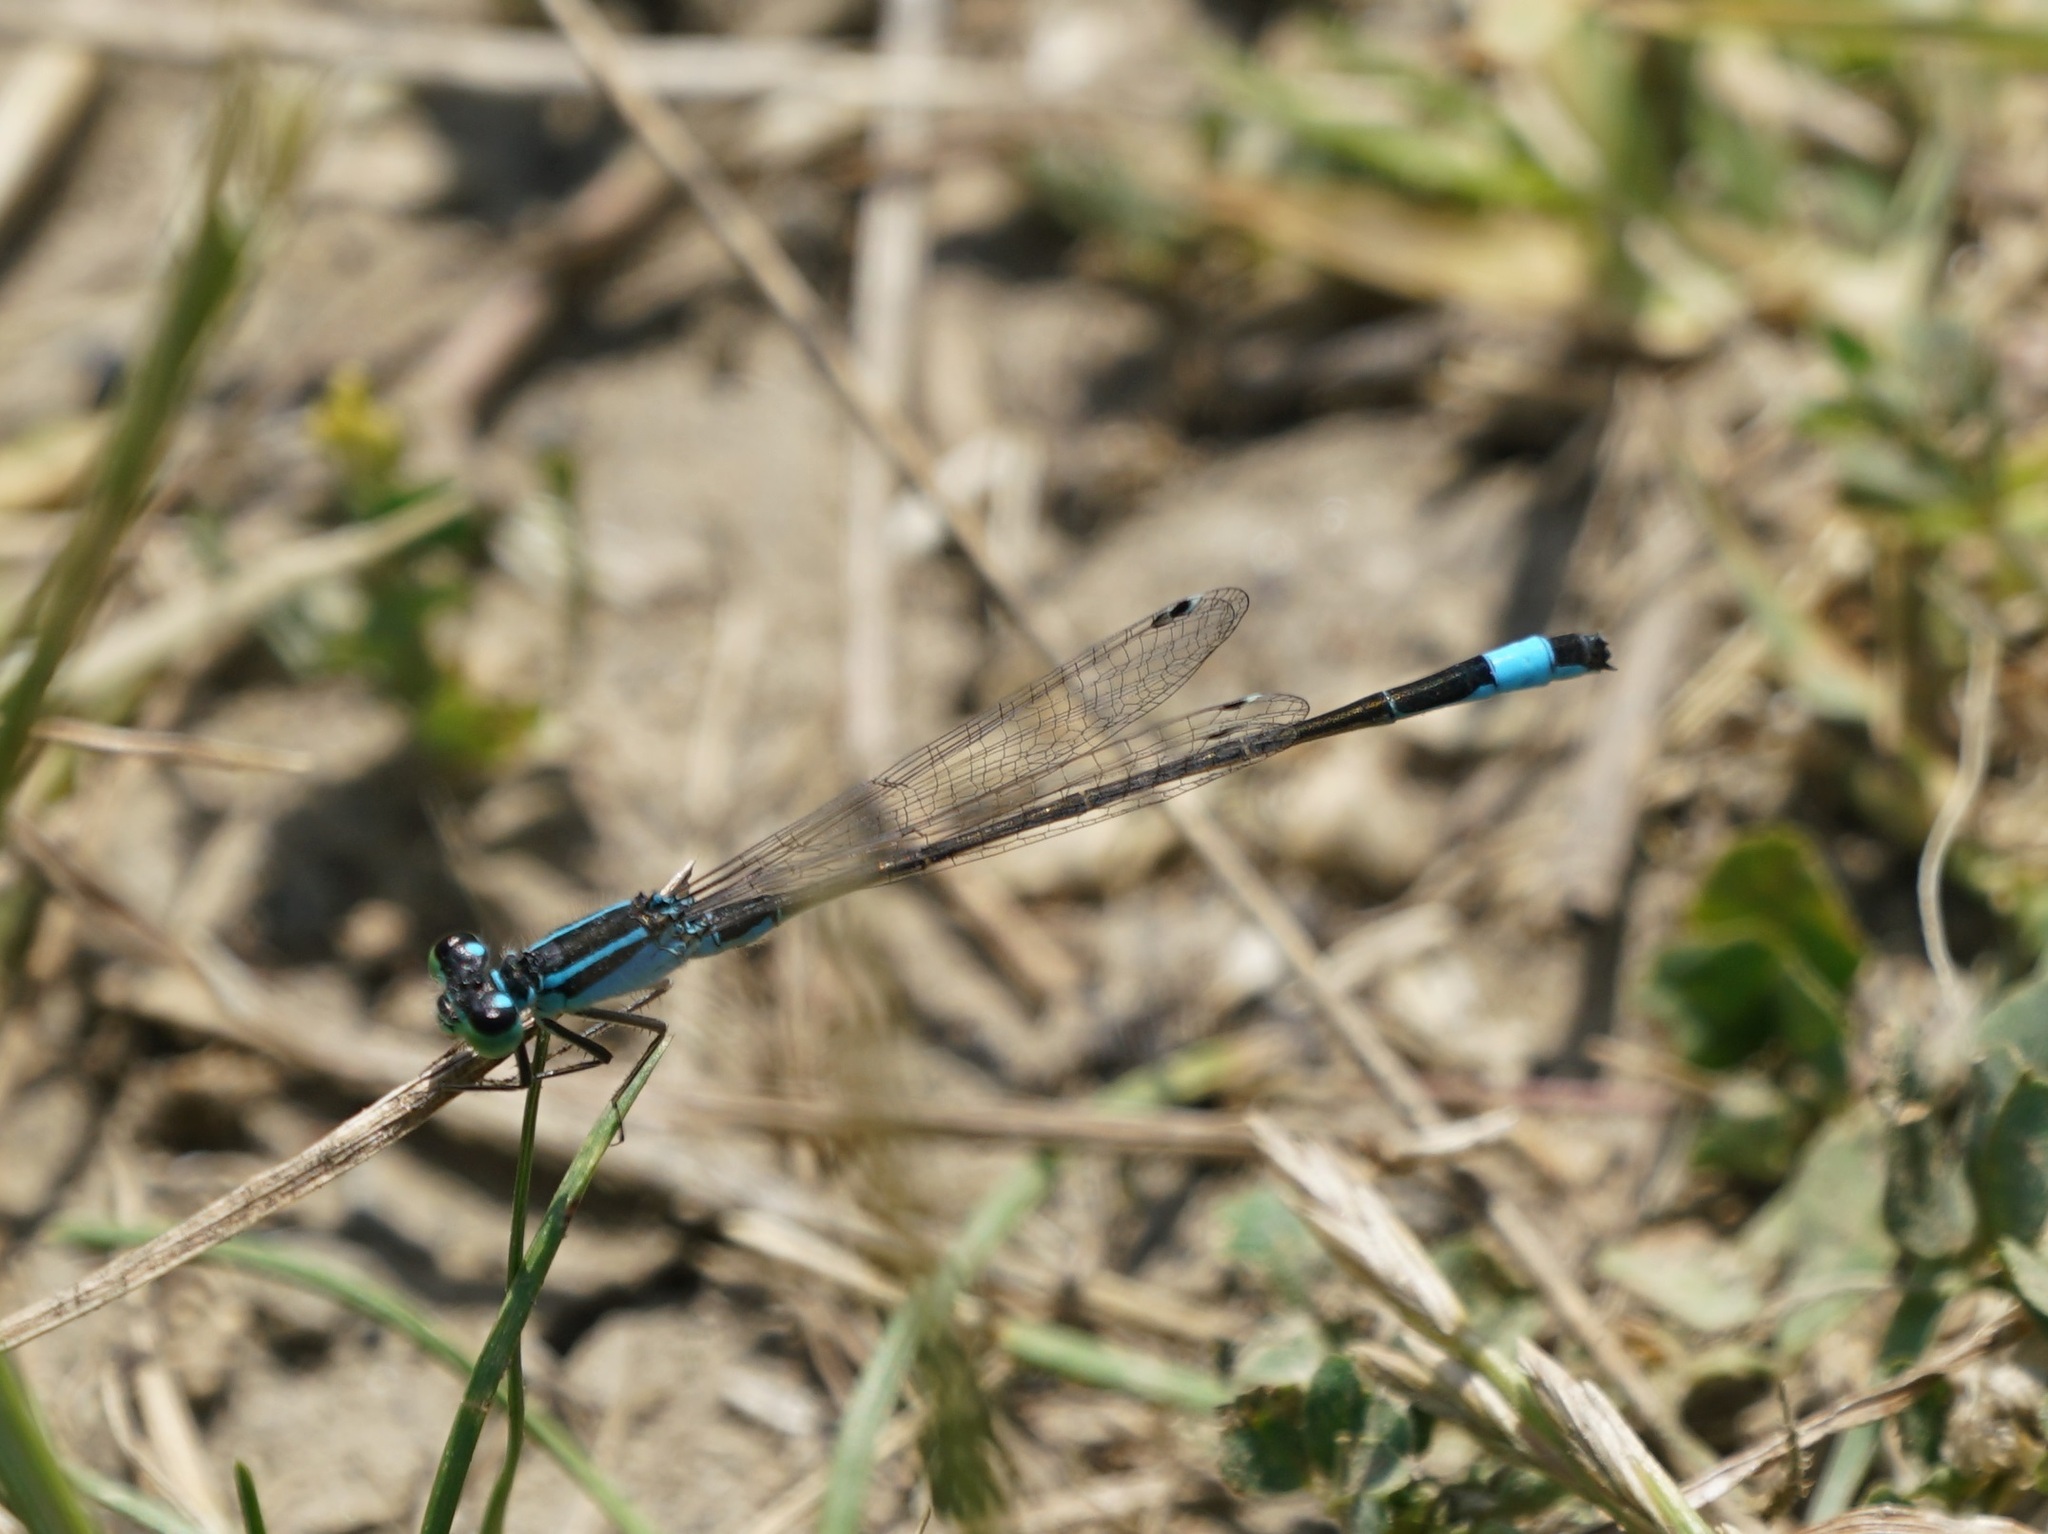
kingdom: Animalia
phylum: Arthropoda
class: Insecta
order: Odonata
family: Coenagrionidae
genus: Ischnura
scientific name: Ischnura elegans
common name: Blue-tailed damselfly
